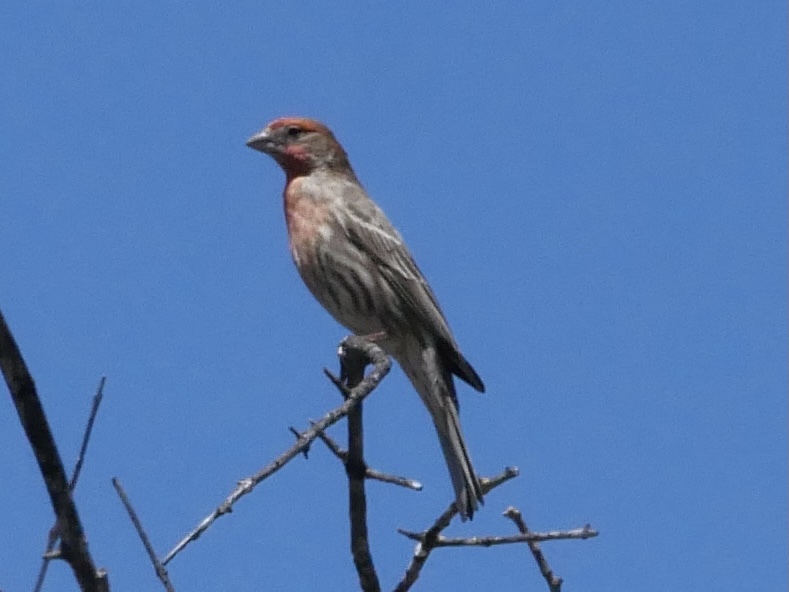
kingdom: Animalia
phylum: Chordata
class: Aves
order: Passeriformes
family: Fringillidae
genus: Haemorhous
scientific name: Haemorhous mexicanus
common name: House finch
